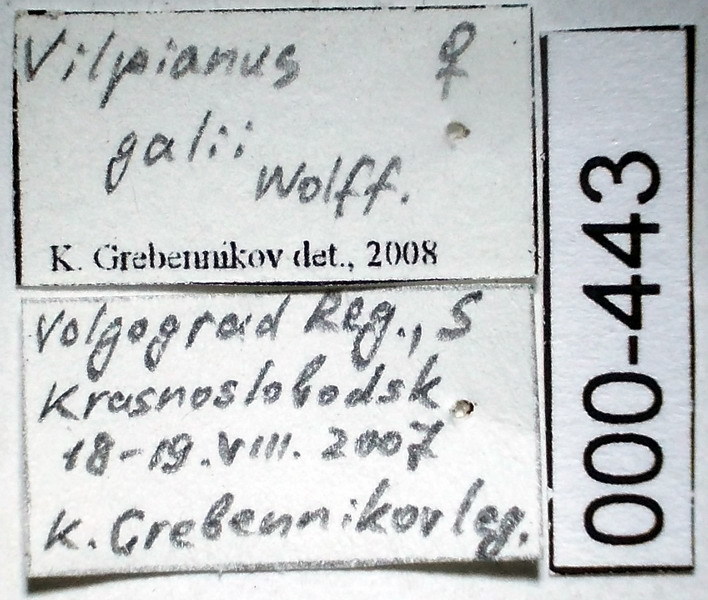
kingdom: Animalia
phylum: Arthropoda
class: Insecta
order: Hemiptera
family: Pentatomidae
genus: Vilpianus
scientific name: Vilpianus galii
